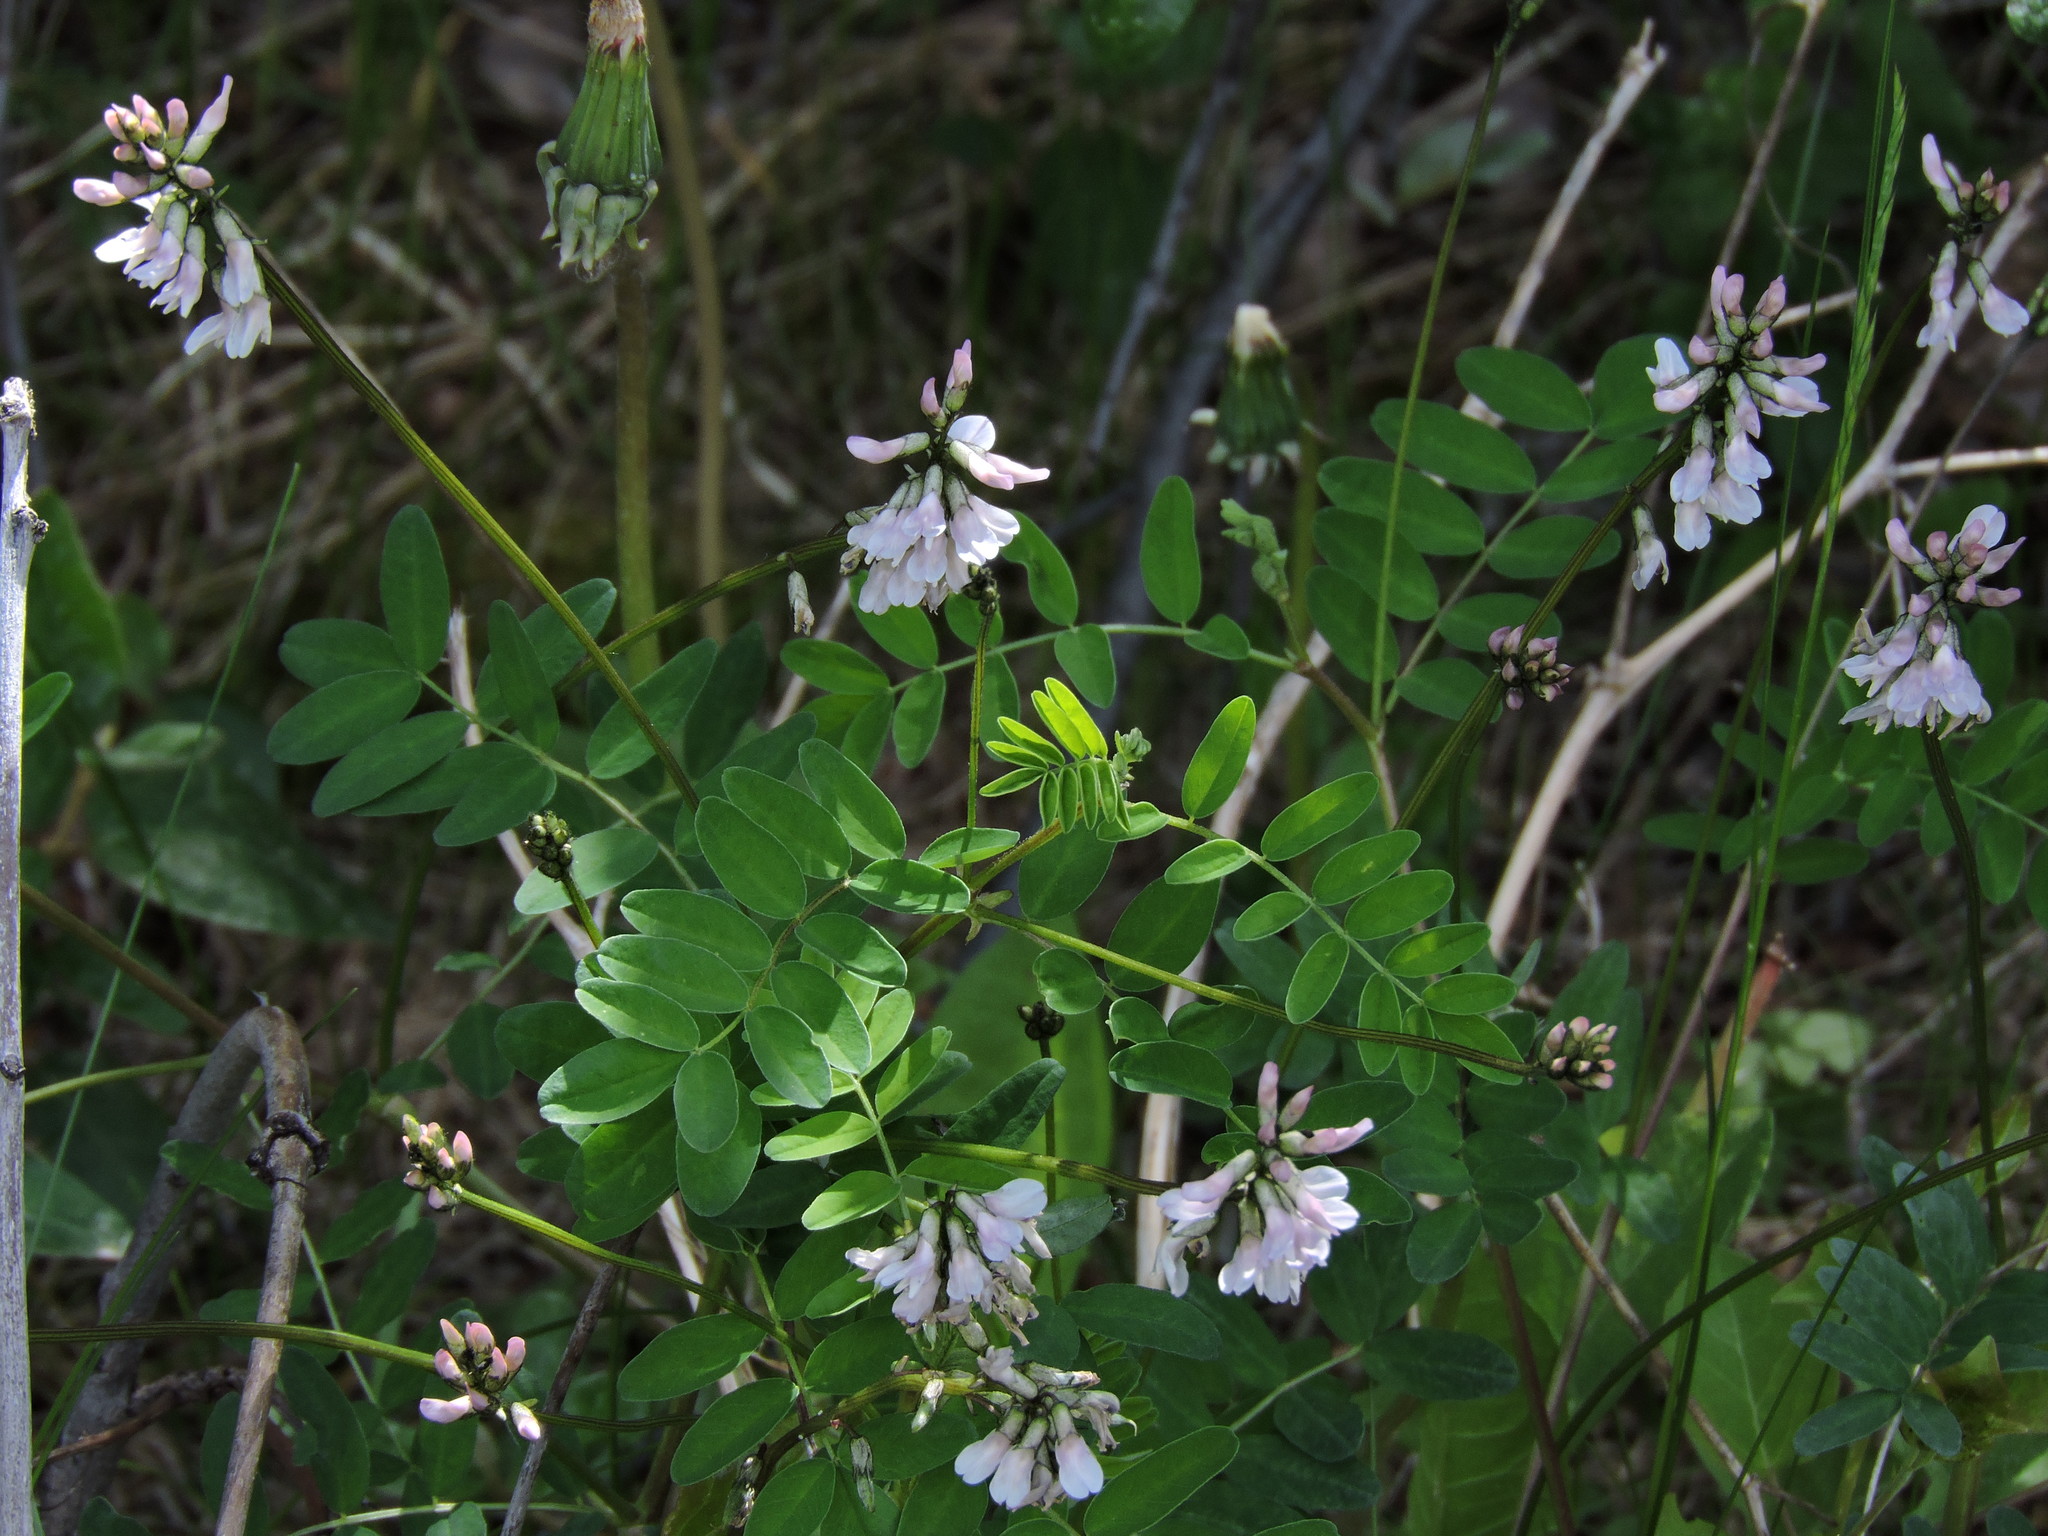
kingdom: Plantae
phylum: Tracheophyta
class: Magnoliopsida
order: Fabales
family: Fabaceae
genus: Astragalus
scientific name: Astragalus robbinsii
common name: Robbins' milk-vetch
